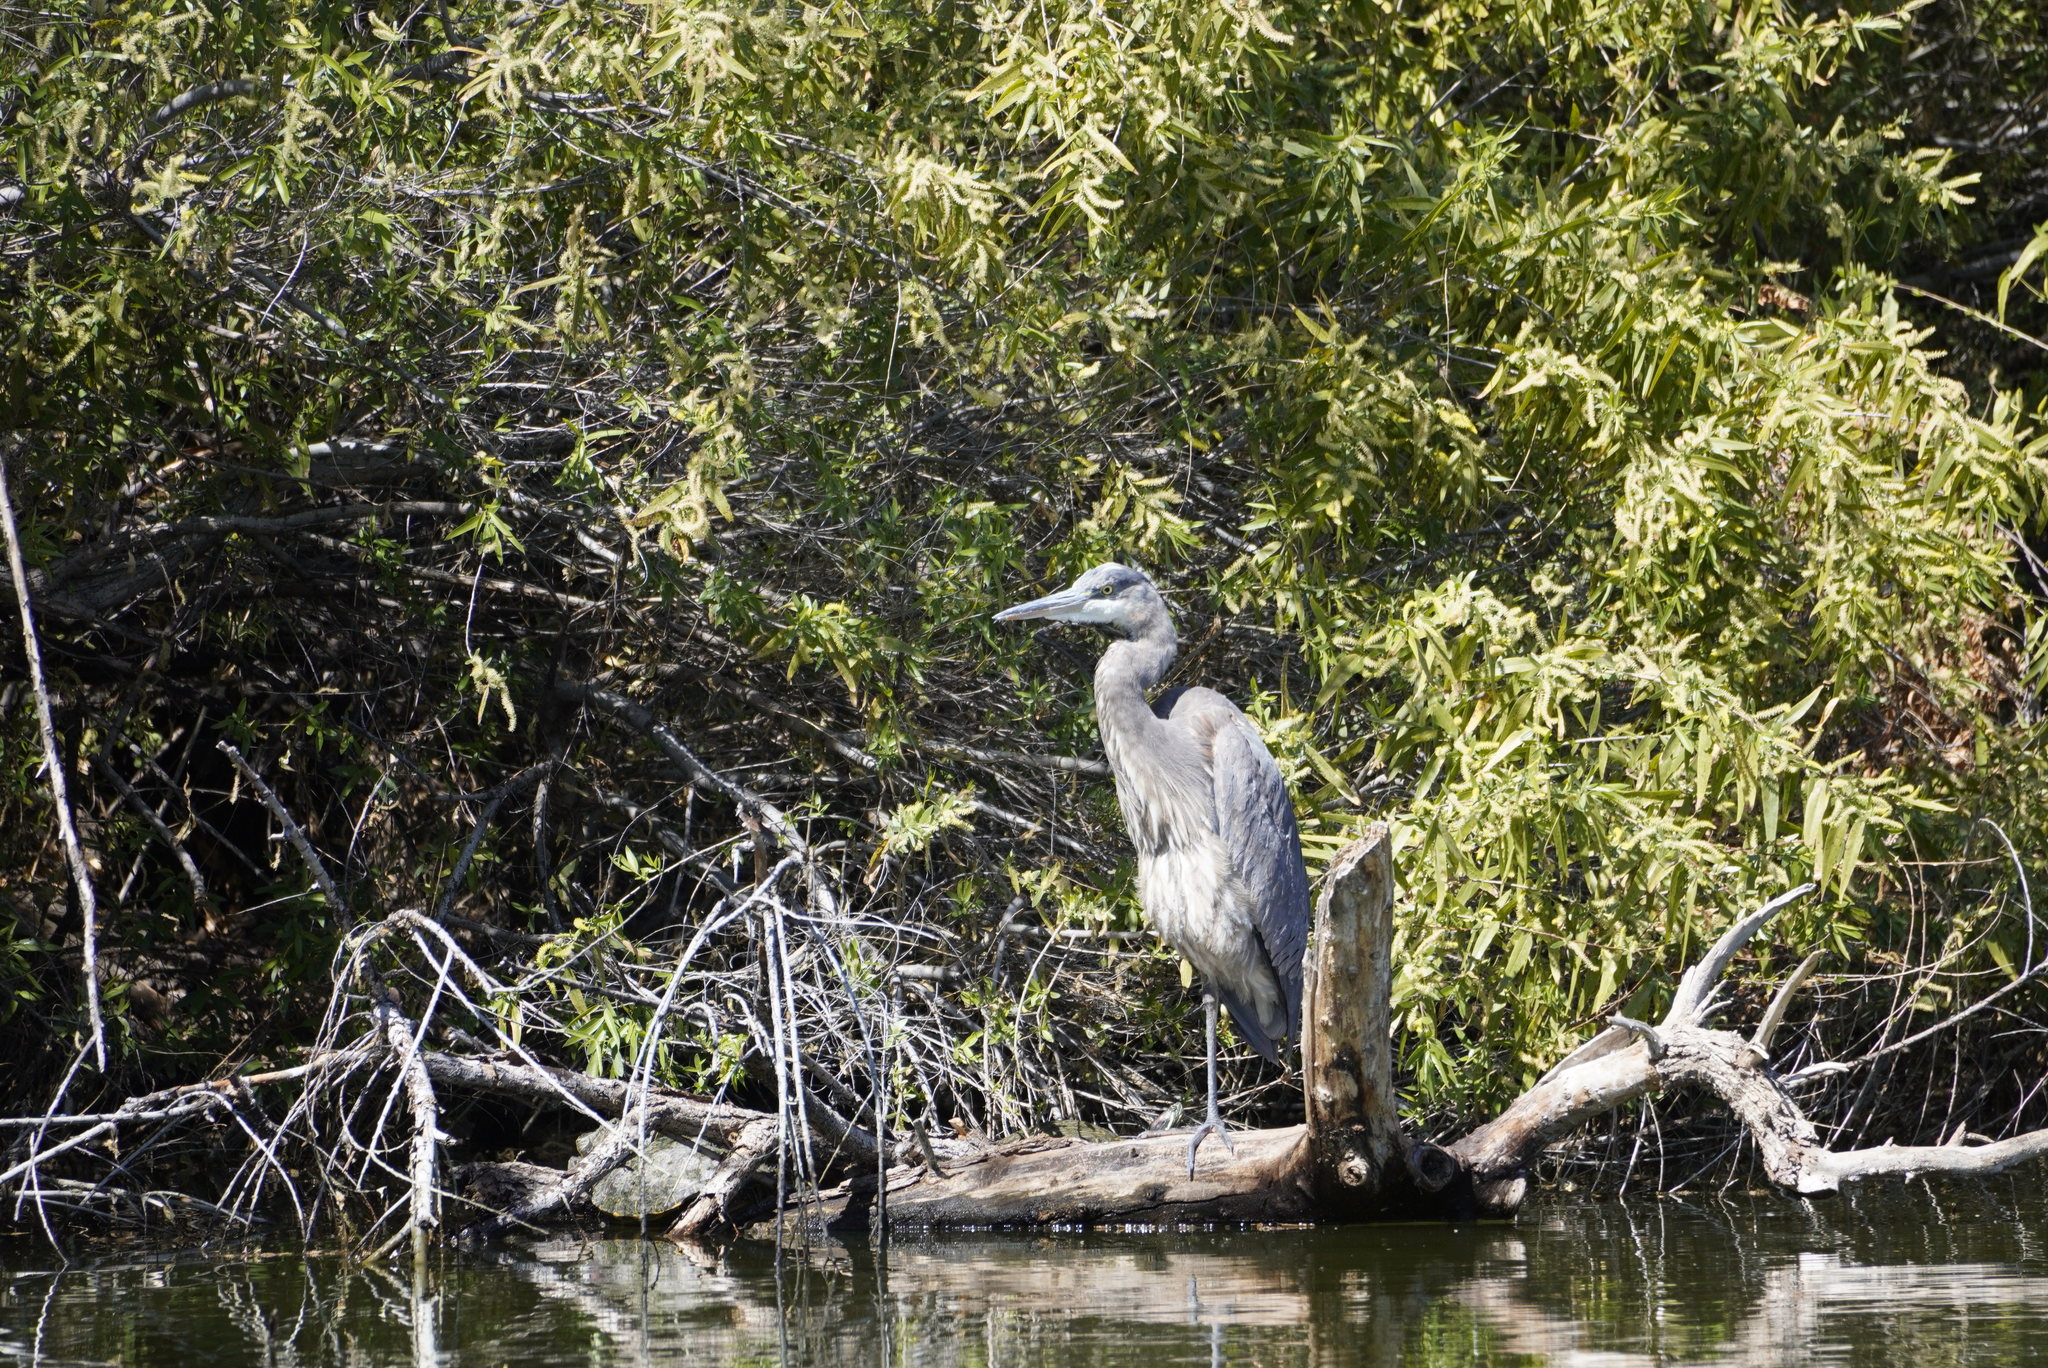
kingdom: Animalia
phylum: Chordata
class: Aves
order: Pelecaniformes
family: Ardeidae
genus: Ardea
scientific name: Ardea herodias
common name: Great blue heron
